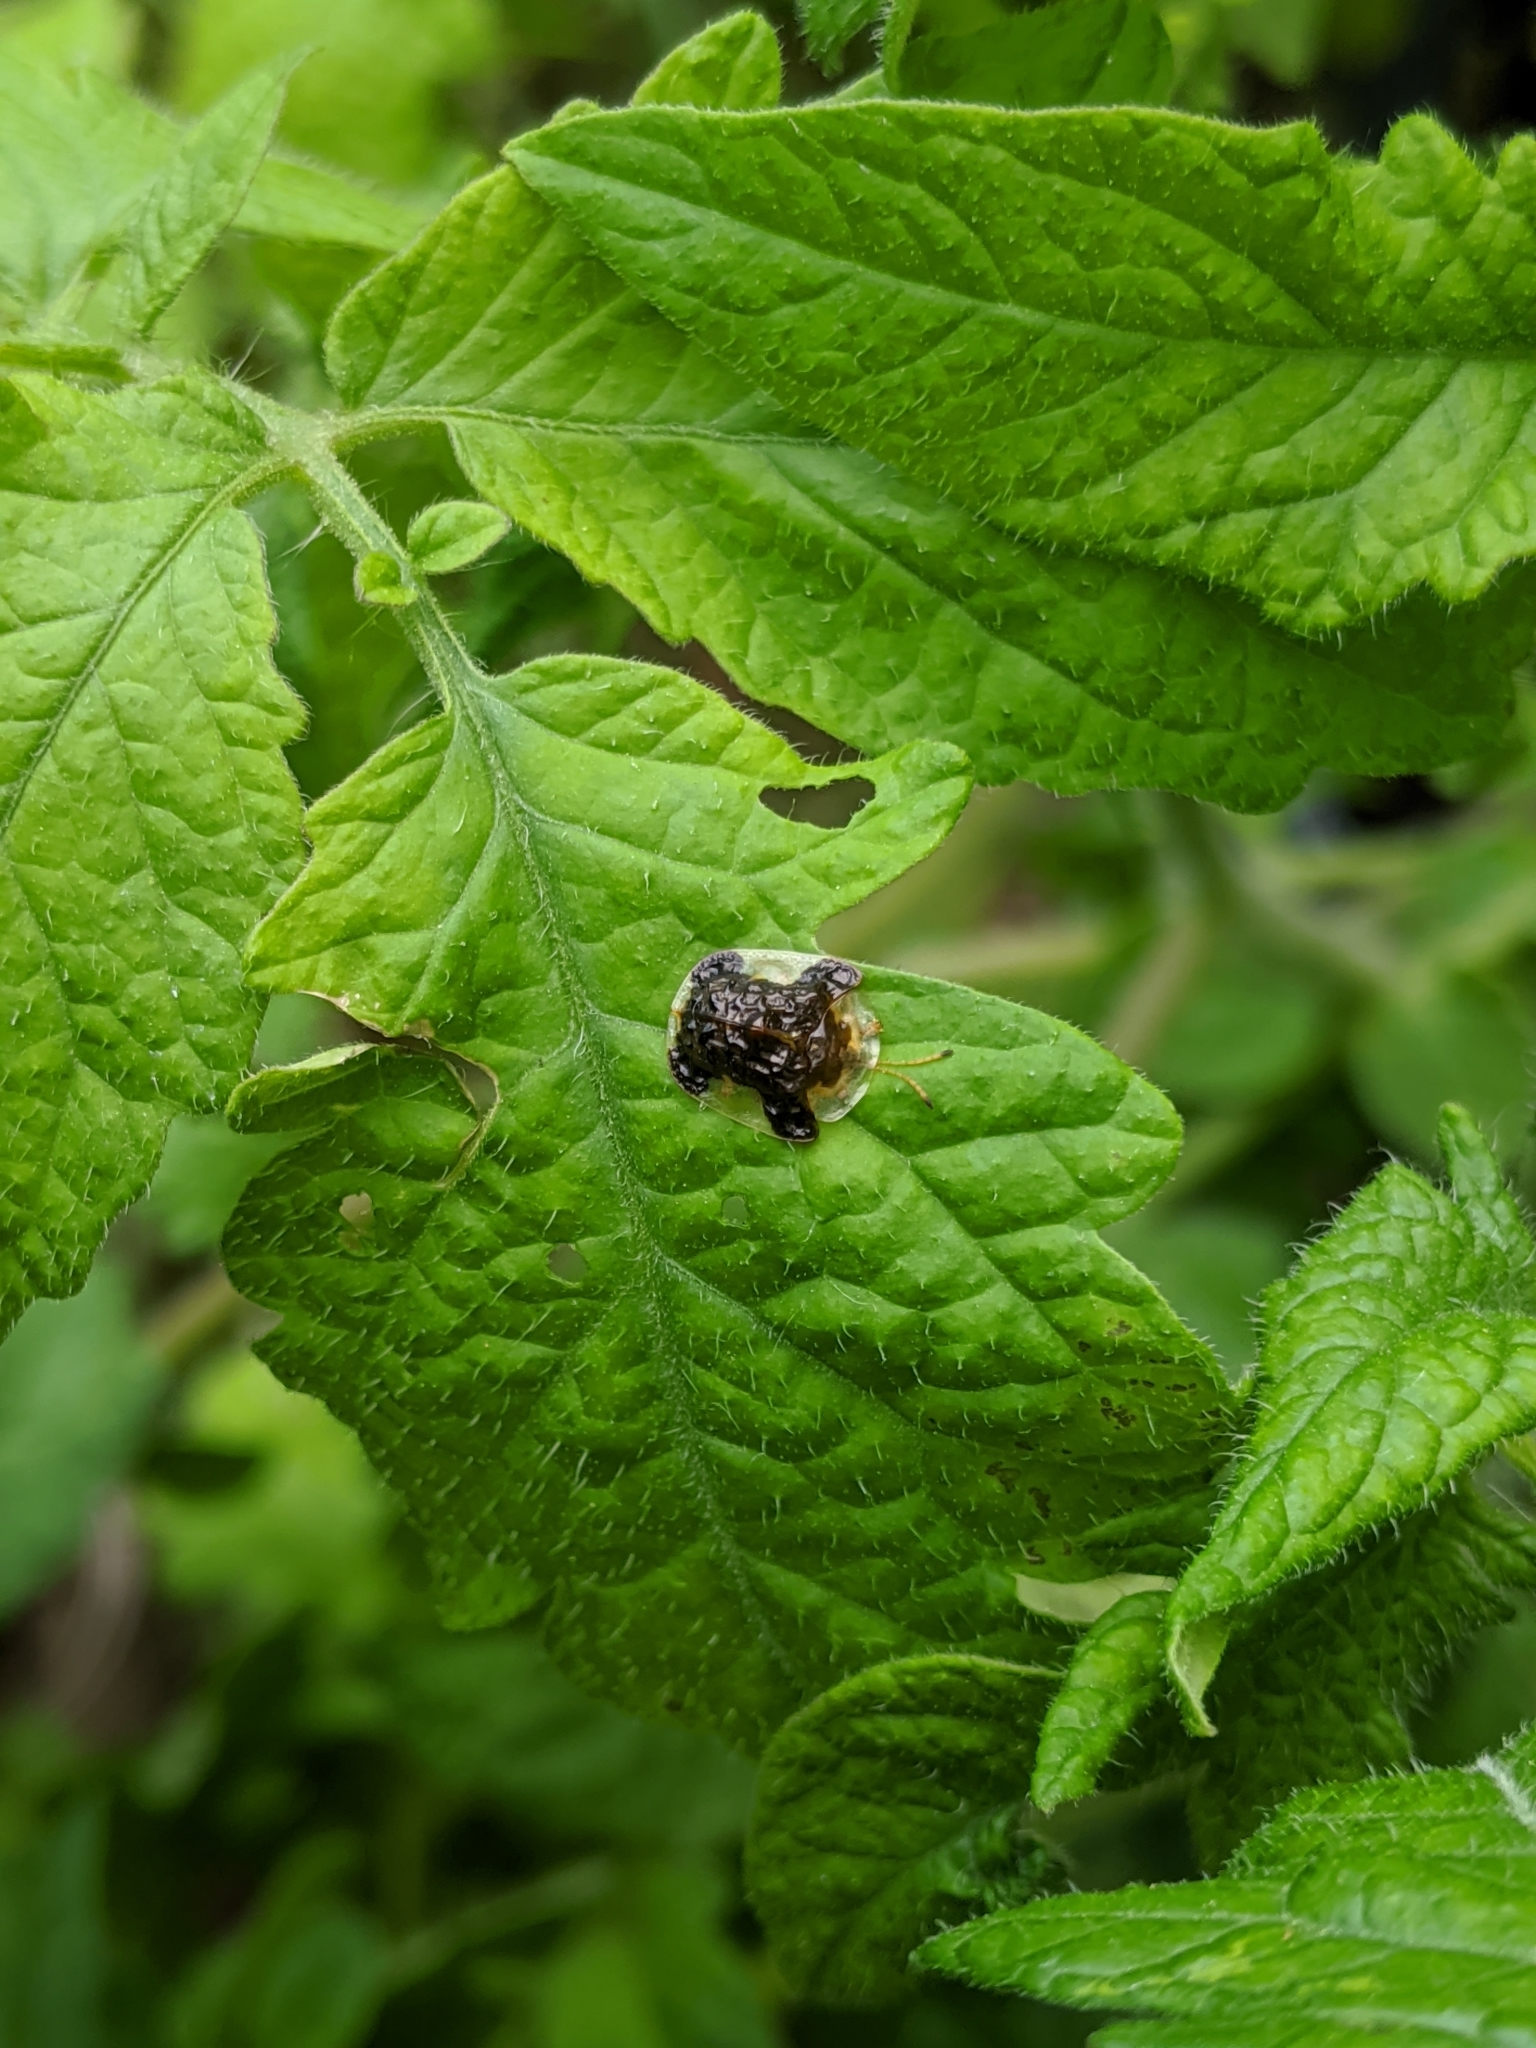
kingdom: Animalia
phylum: Arthropoda
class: Insecta
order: Coleoptera
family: Chrysomelidae
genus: Helocassis
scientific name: Helocassis clavata
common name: Clavate tortoise beetle
